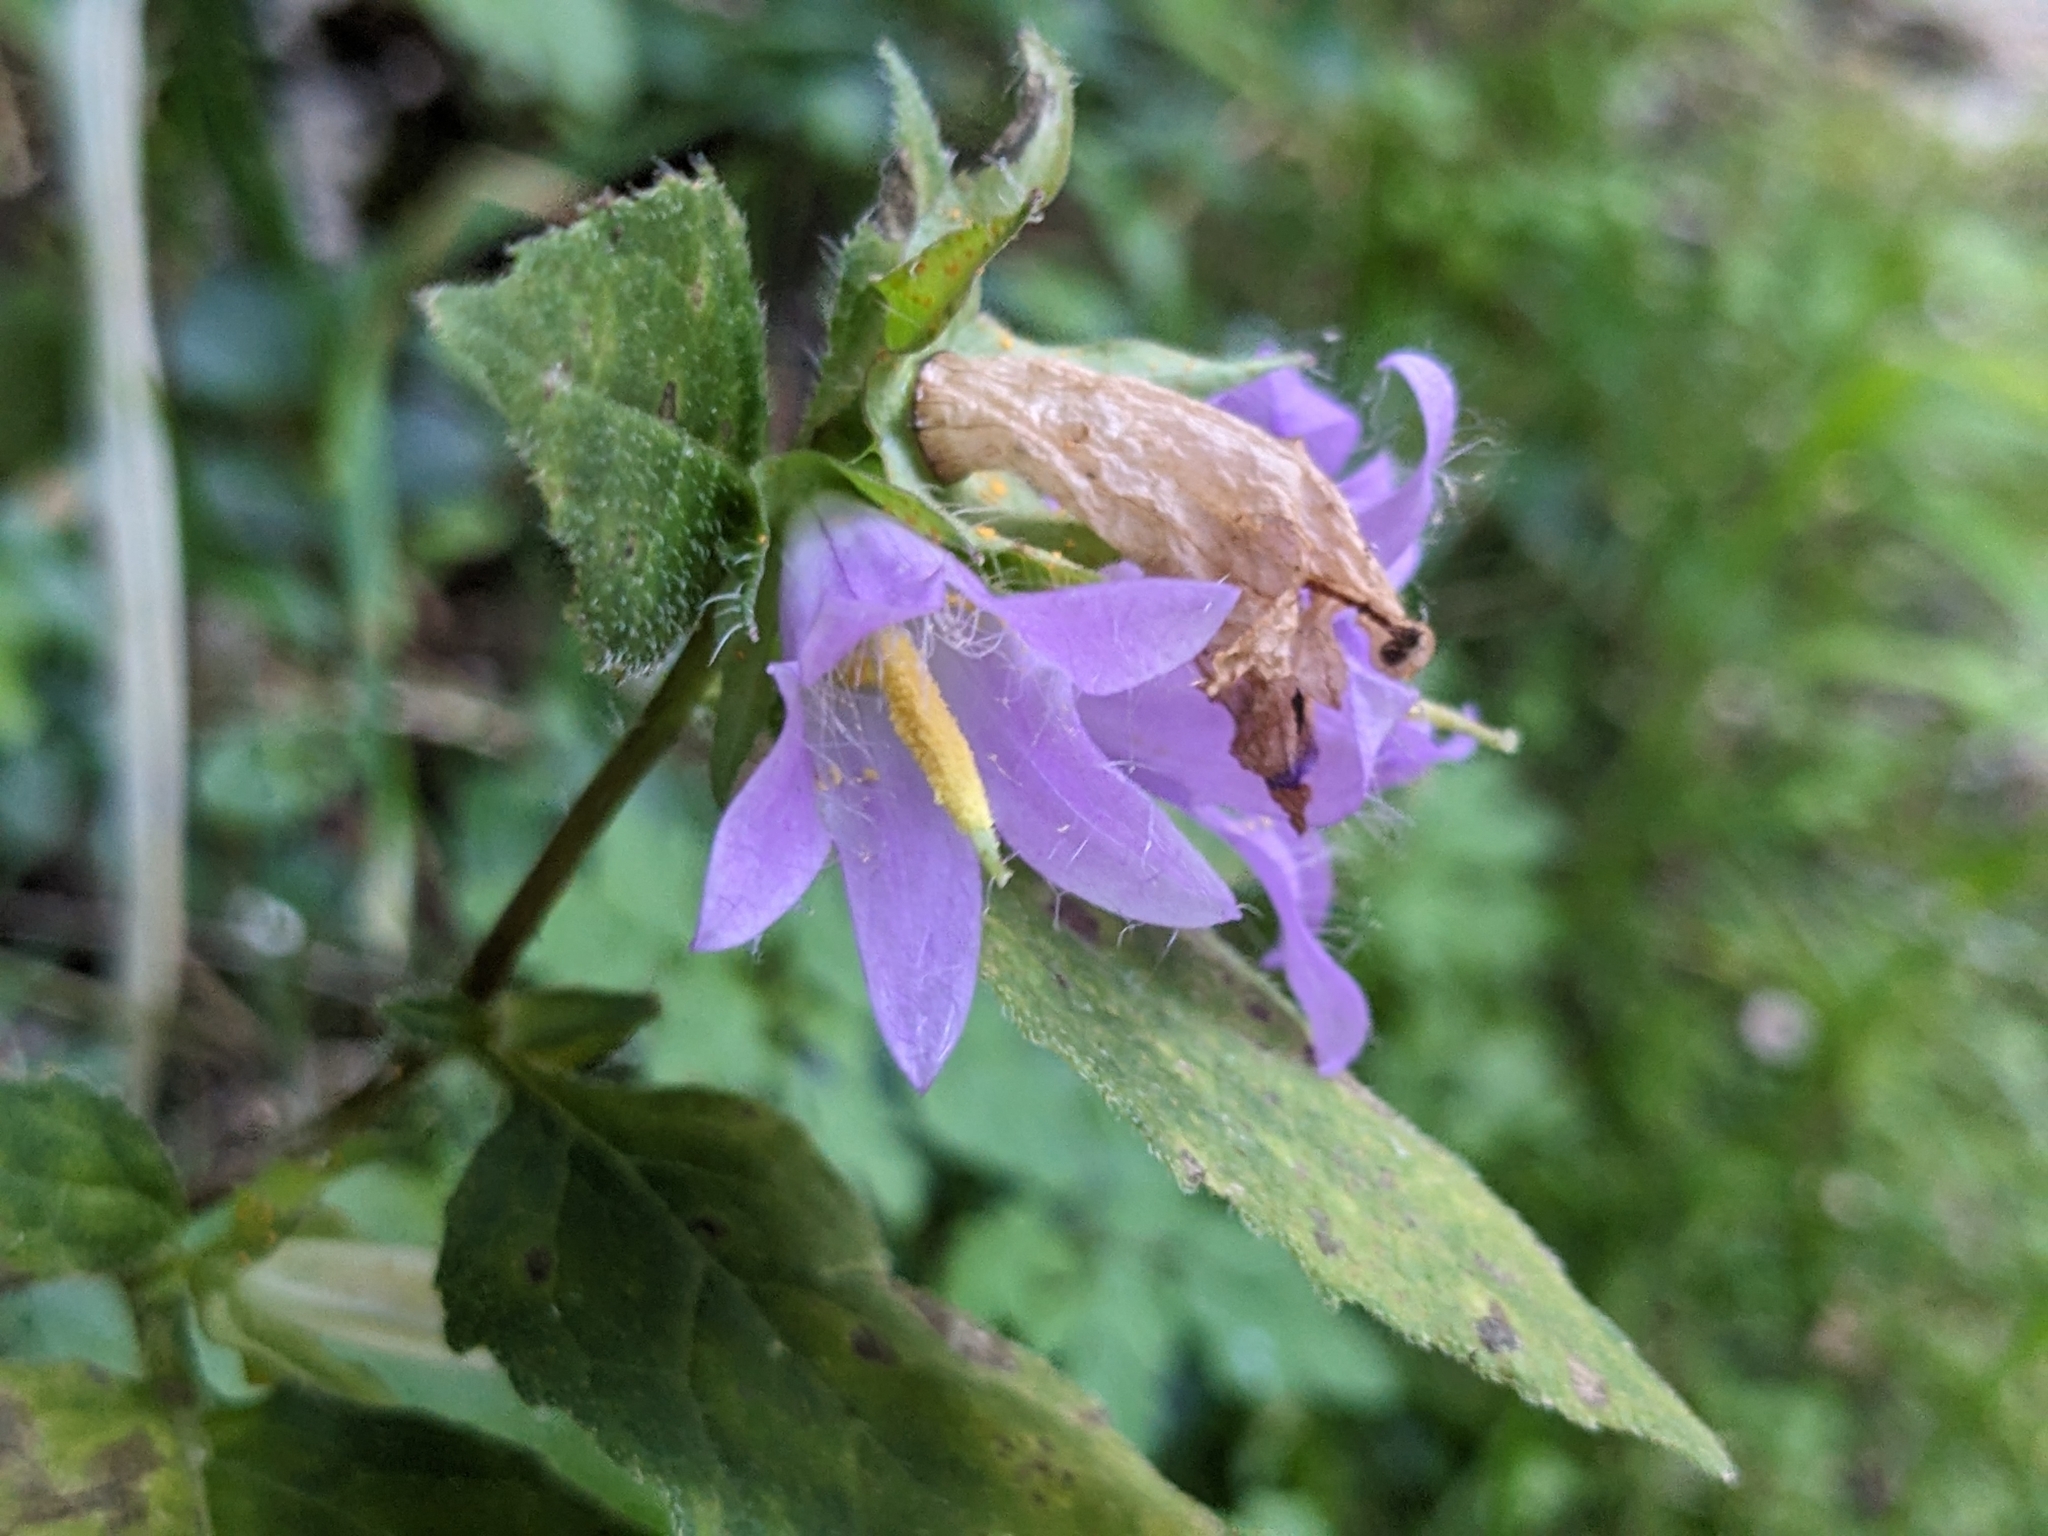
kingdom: Plantae
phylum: Tracheophyta
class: Magnoliopsida
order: Asterales
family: Campanulaceae
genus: Campanula
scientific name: Campanula trachelium
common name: Nettle-leaved bellflower
